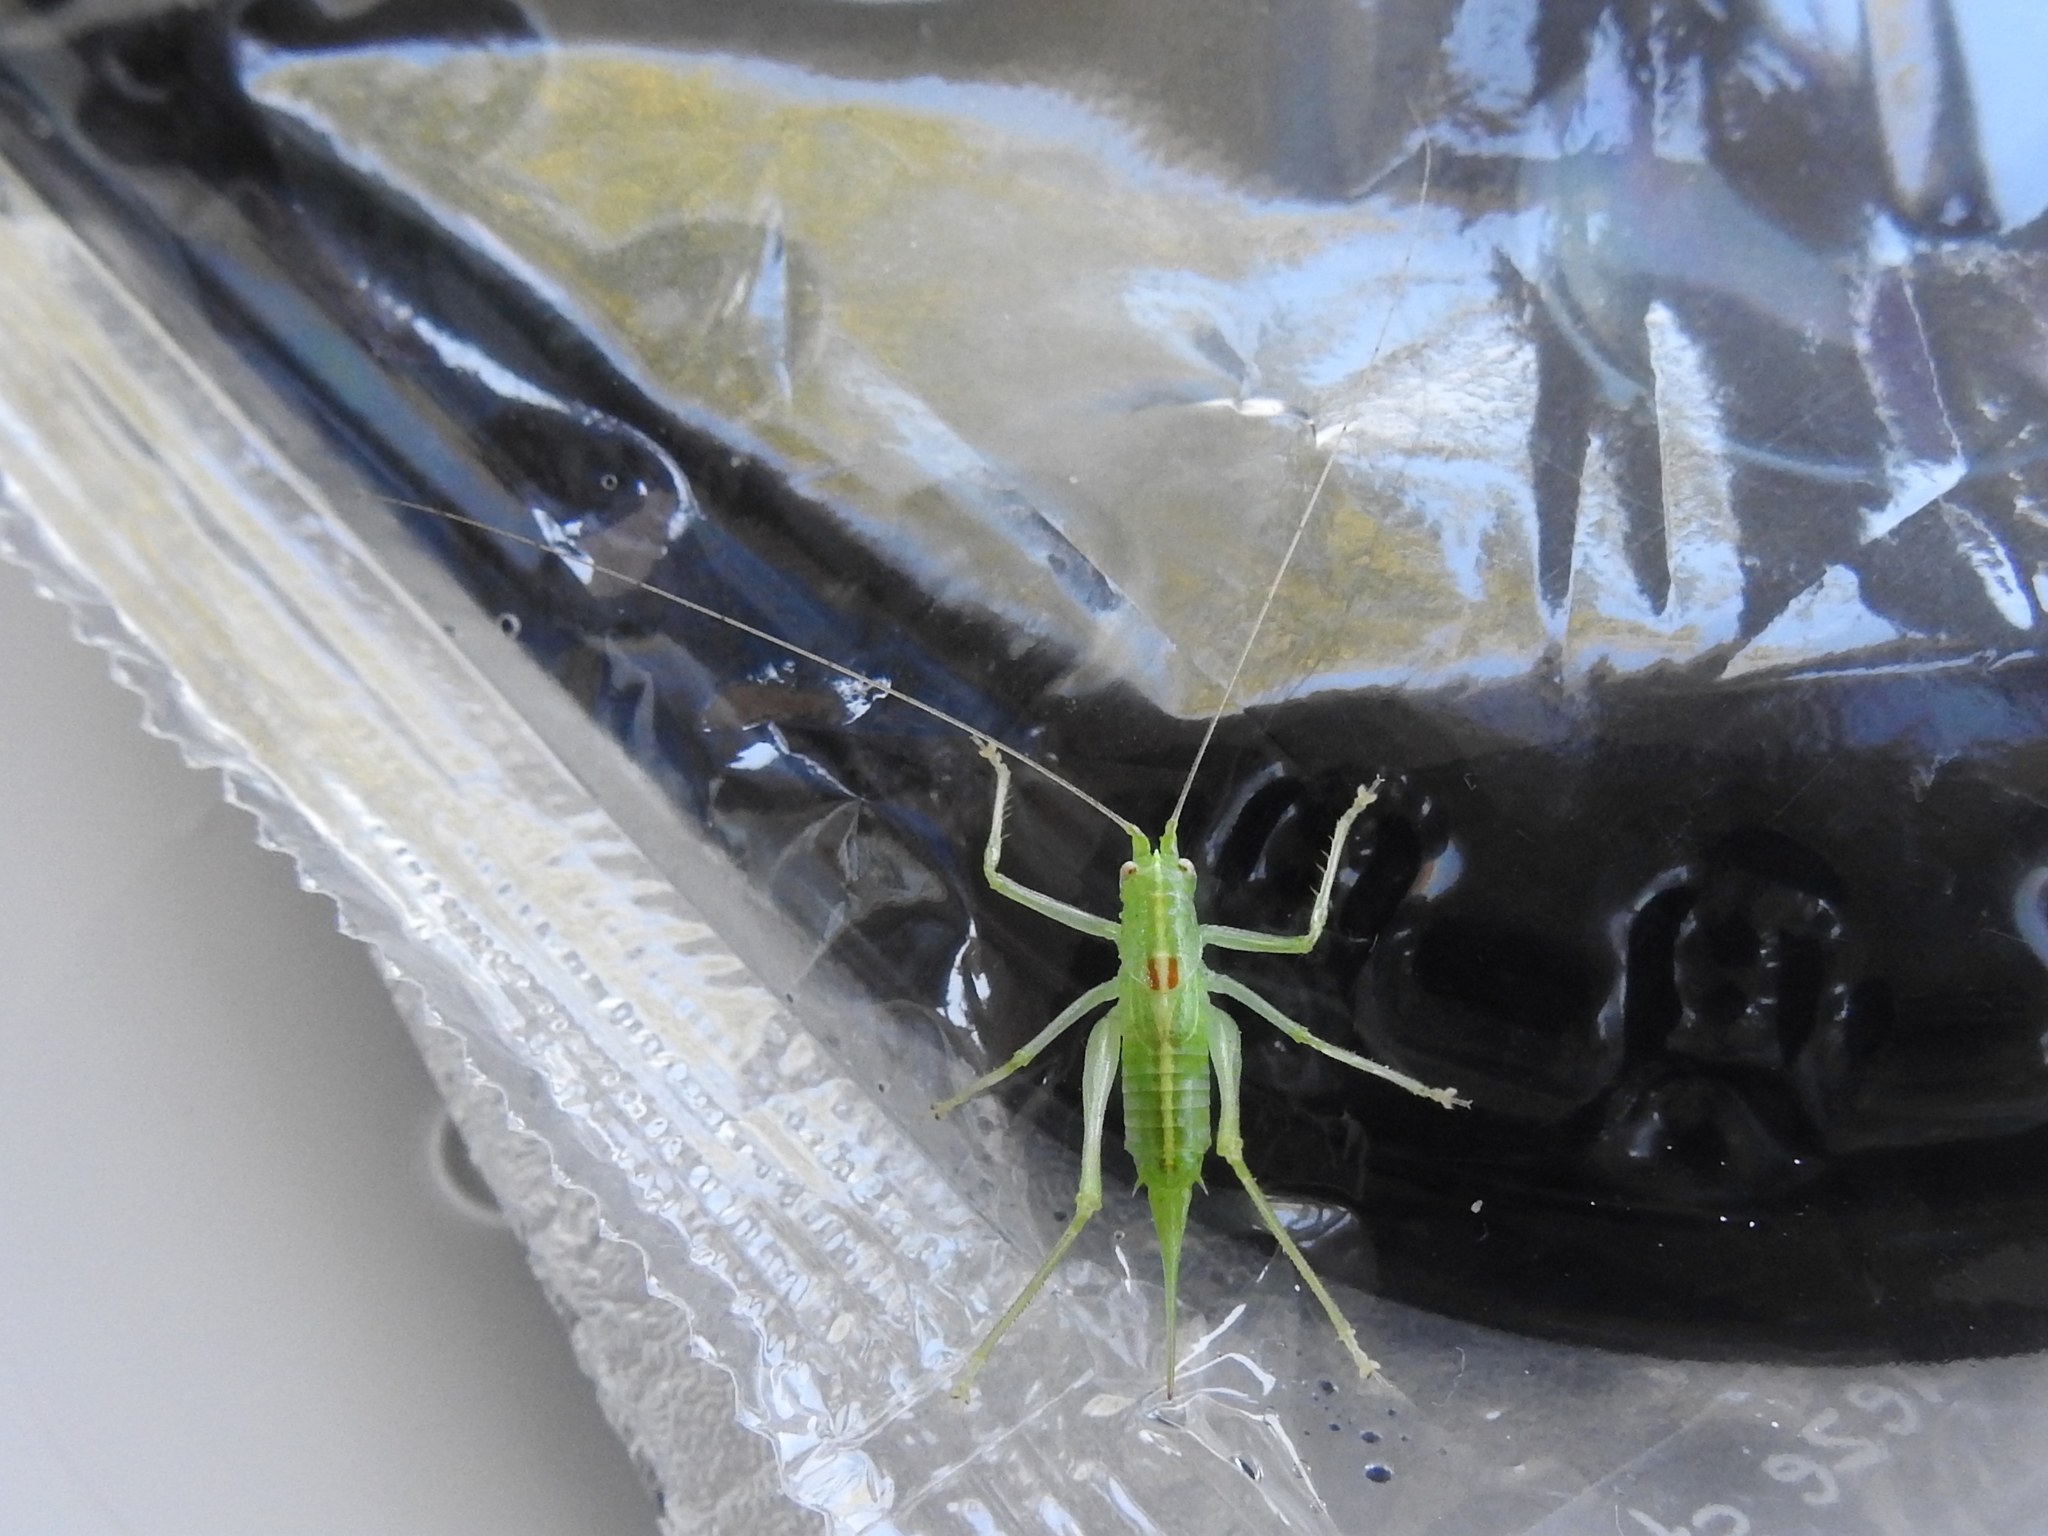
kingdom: Animalia
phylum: Arthropoda
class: Insecta
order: Orthoptera
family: Tettigoniidae
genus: Meconema
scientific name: Meconema meridionale
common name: Southern oak bush-cricket
